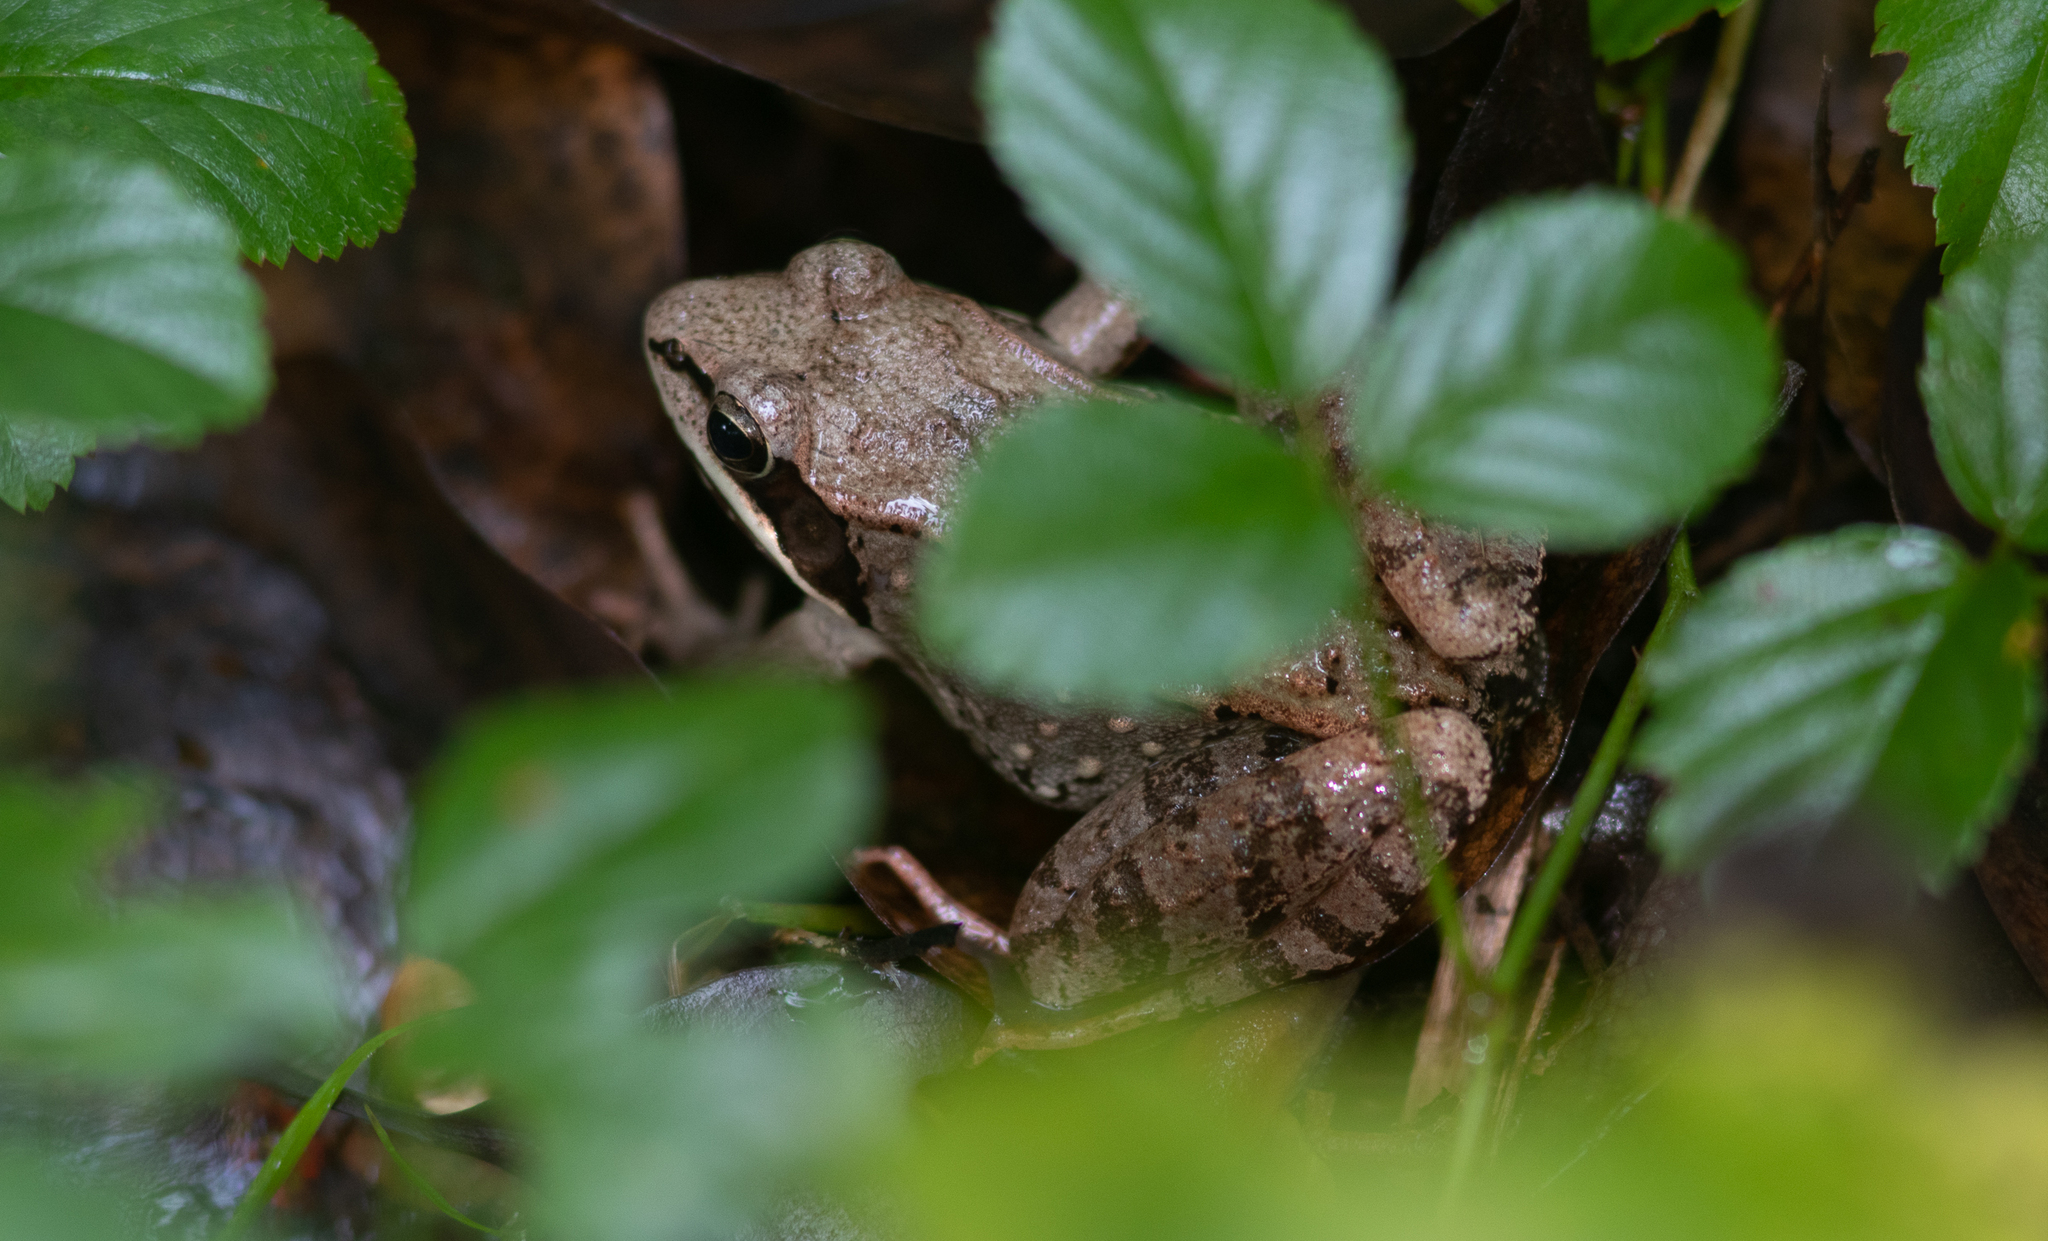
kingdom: Animalia
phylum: Chordata
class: Amphibia
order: Anura
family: Ranidae
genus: Lithobates
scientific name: Lithobates sylvaticus
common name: Wood frog
